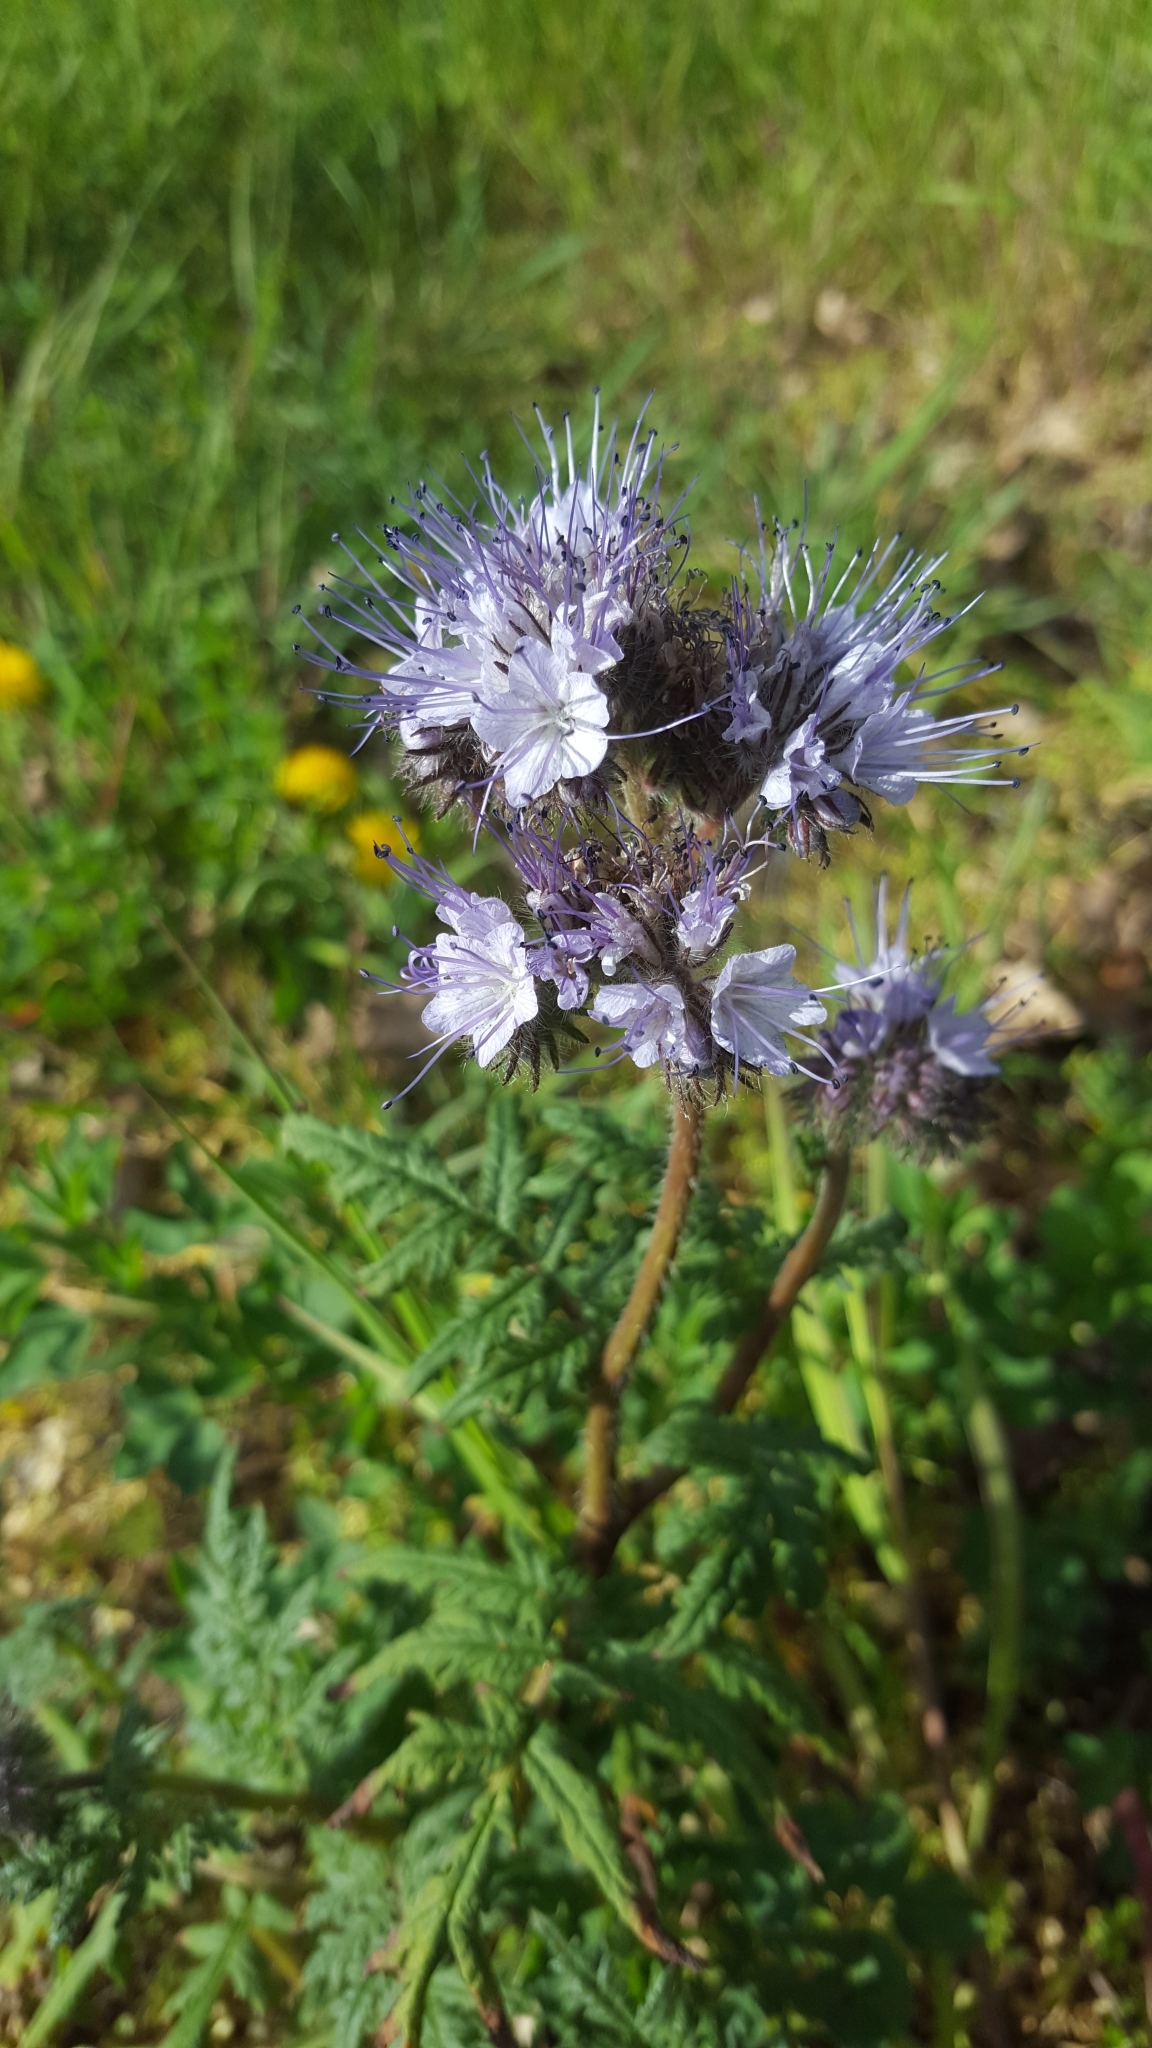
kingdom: Plantae
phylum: Tracheophyta
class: Magnoliopsida
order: Boraginales
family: Hydrophyllaceae
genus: Phacelia
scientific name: Phacelia tanacetifolia
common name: Phacelia
